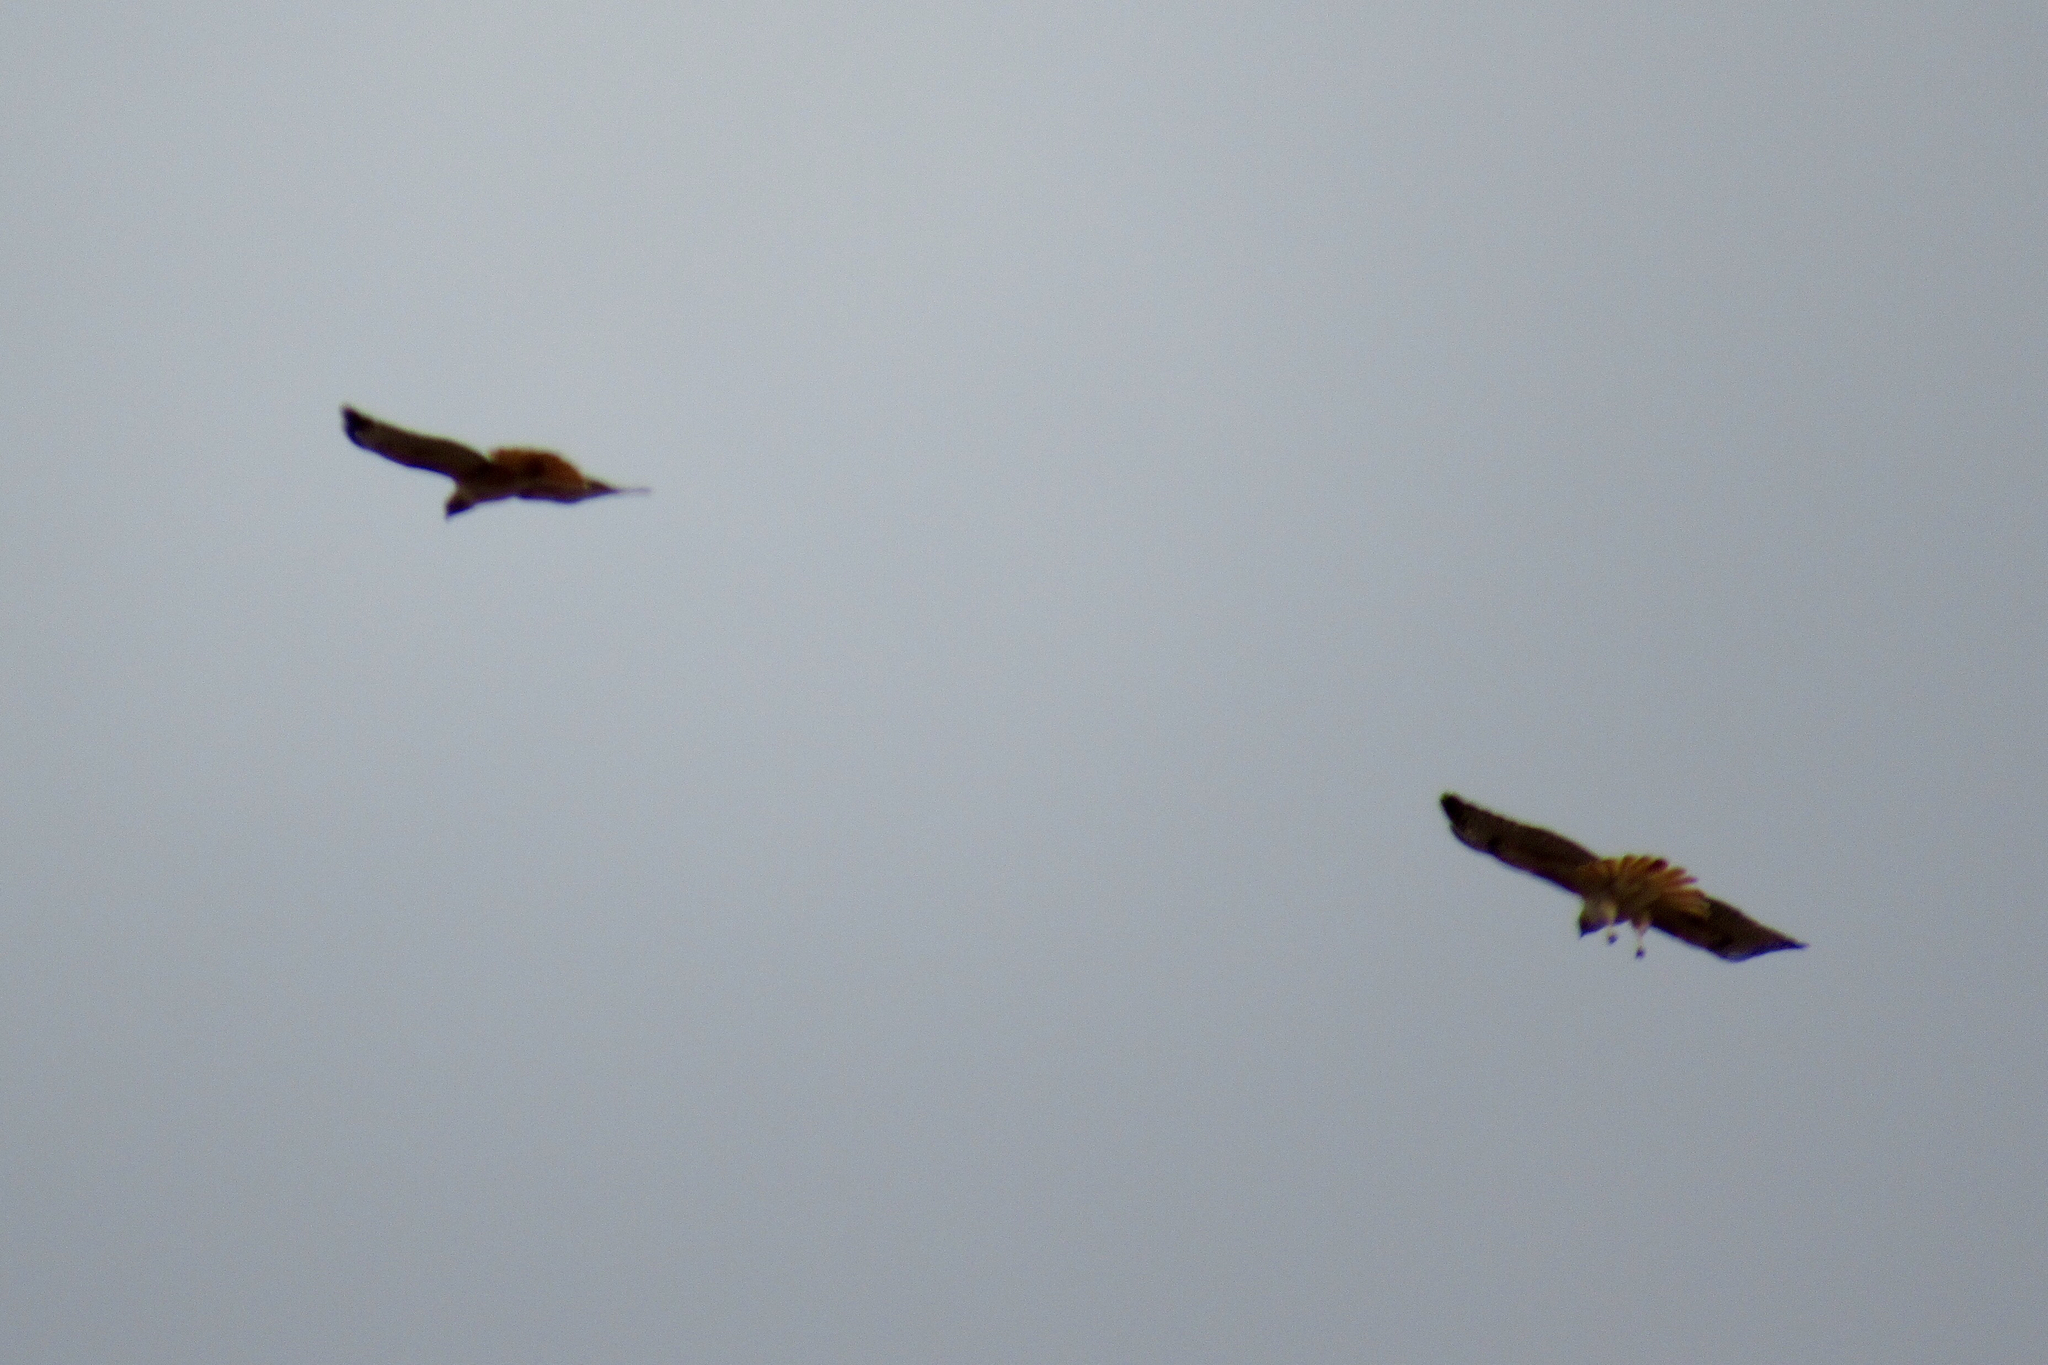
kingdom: Animalia
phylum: Chordata
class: Aves
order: Accipitriformes
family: Accipitridae
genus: Buteo
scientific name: Buteo jamaicensis
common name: Red-tailed hawk
